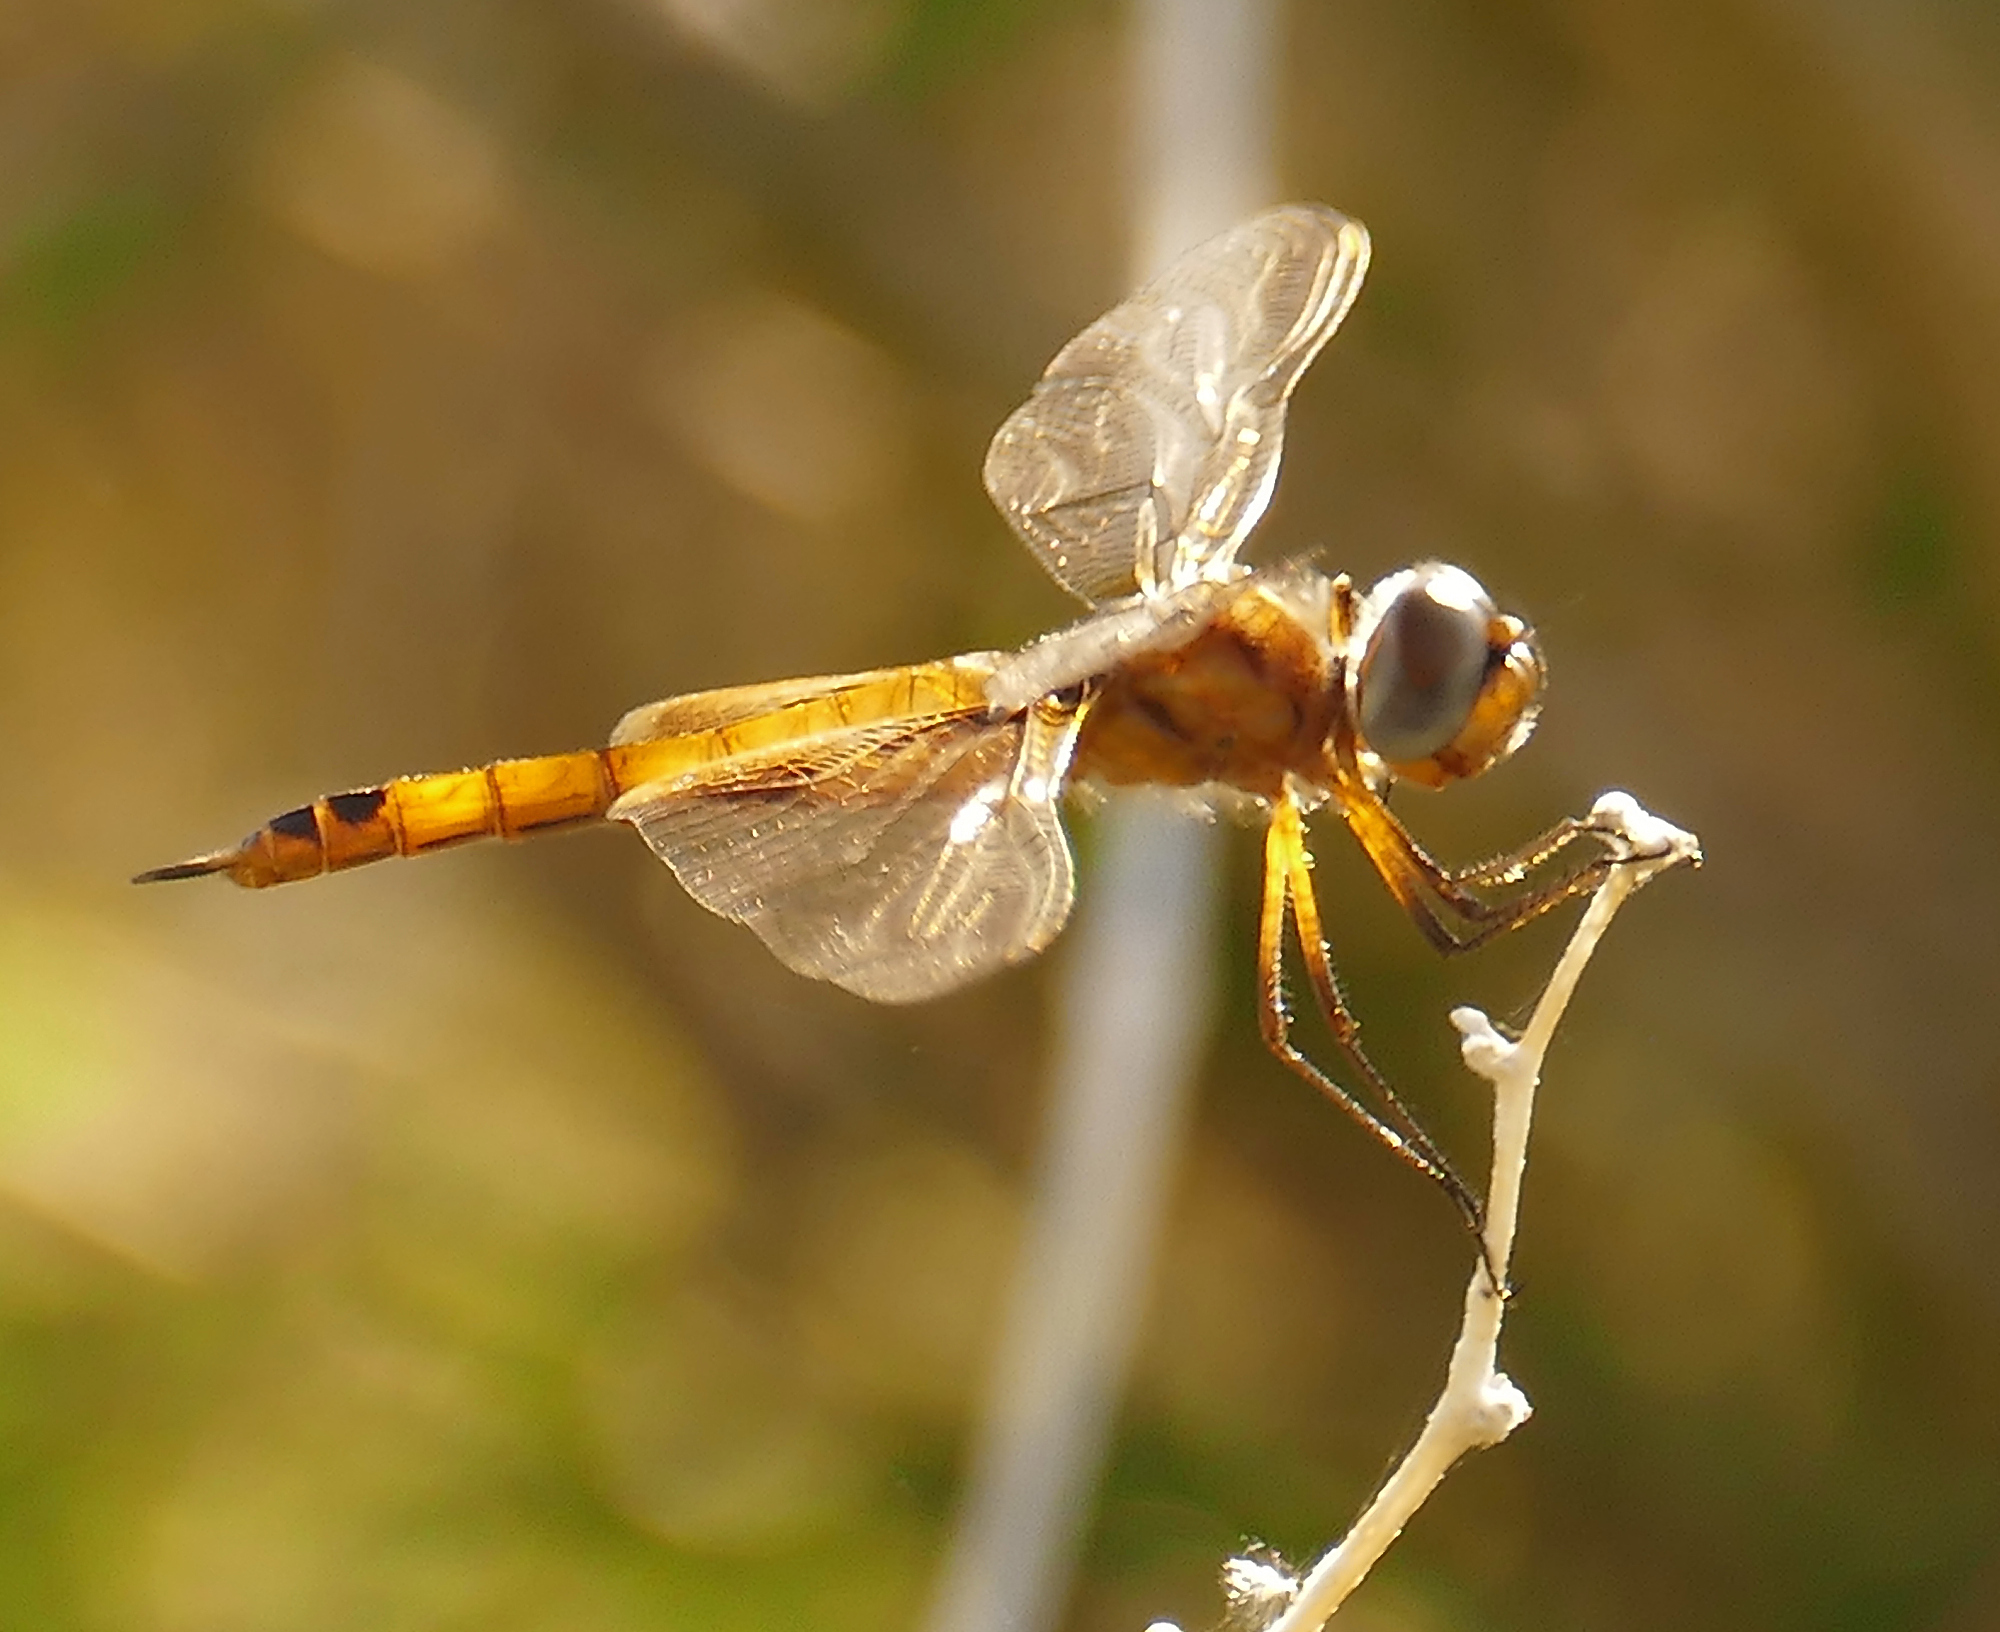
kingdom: Animalia
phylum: Arthropoda
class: Insecta
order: Odonata
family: Libellulidae
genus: Tramea
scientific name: Tramea onusta
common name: Red saddlebags
